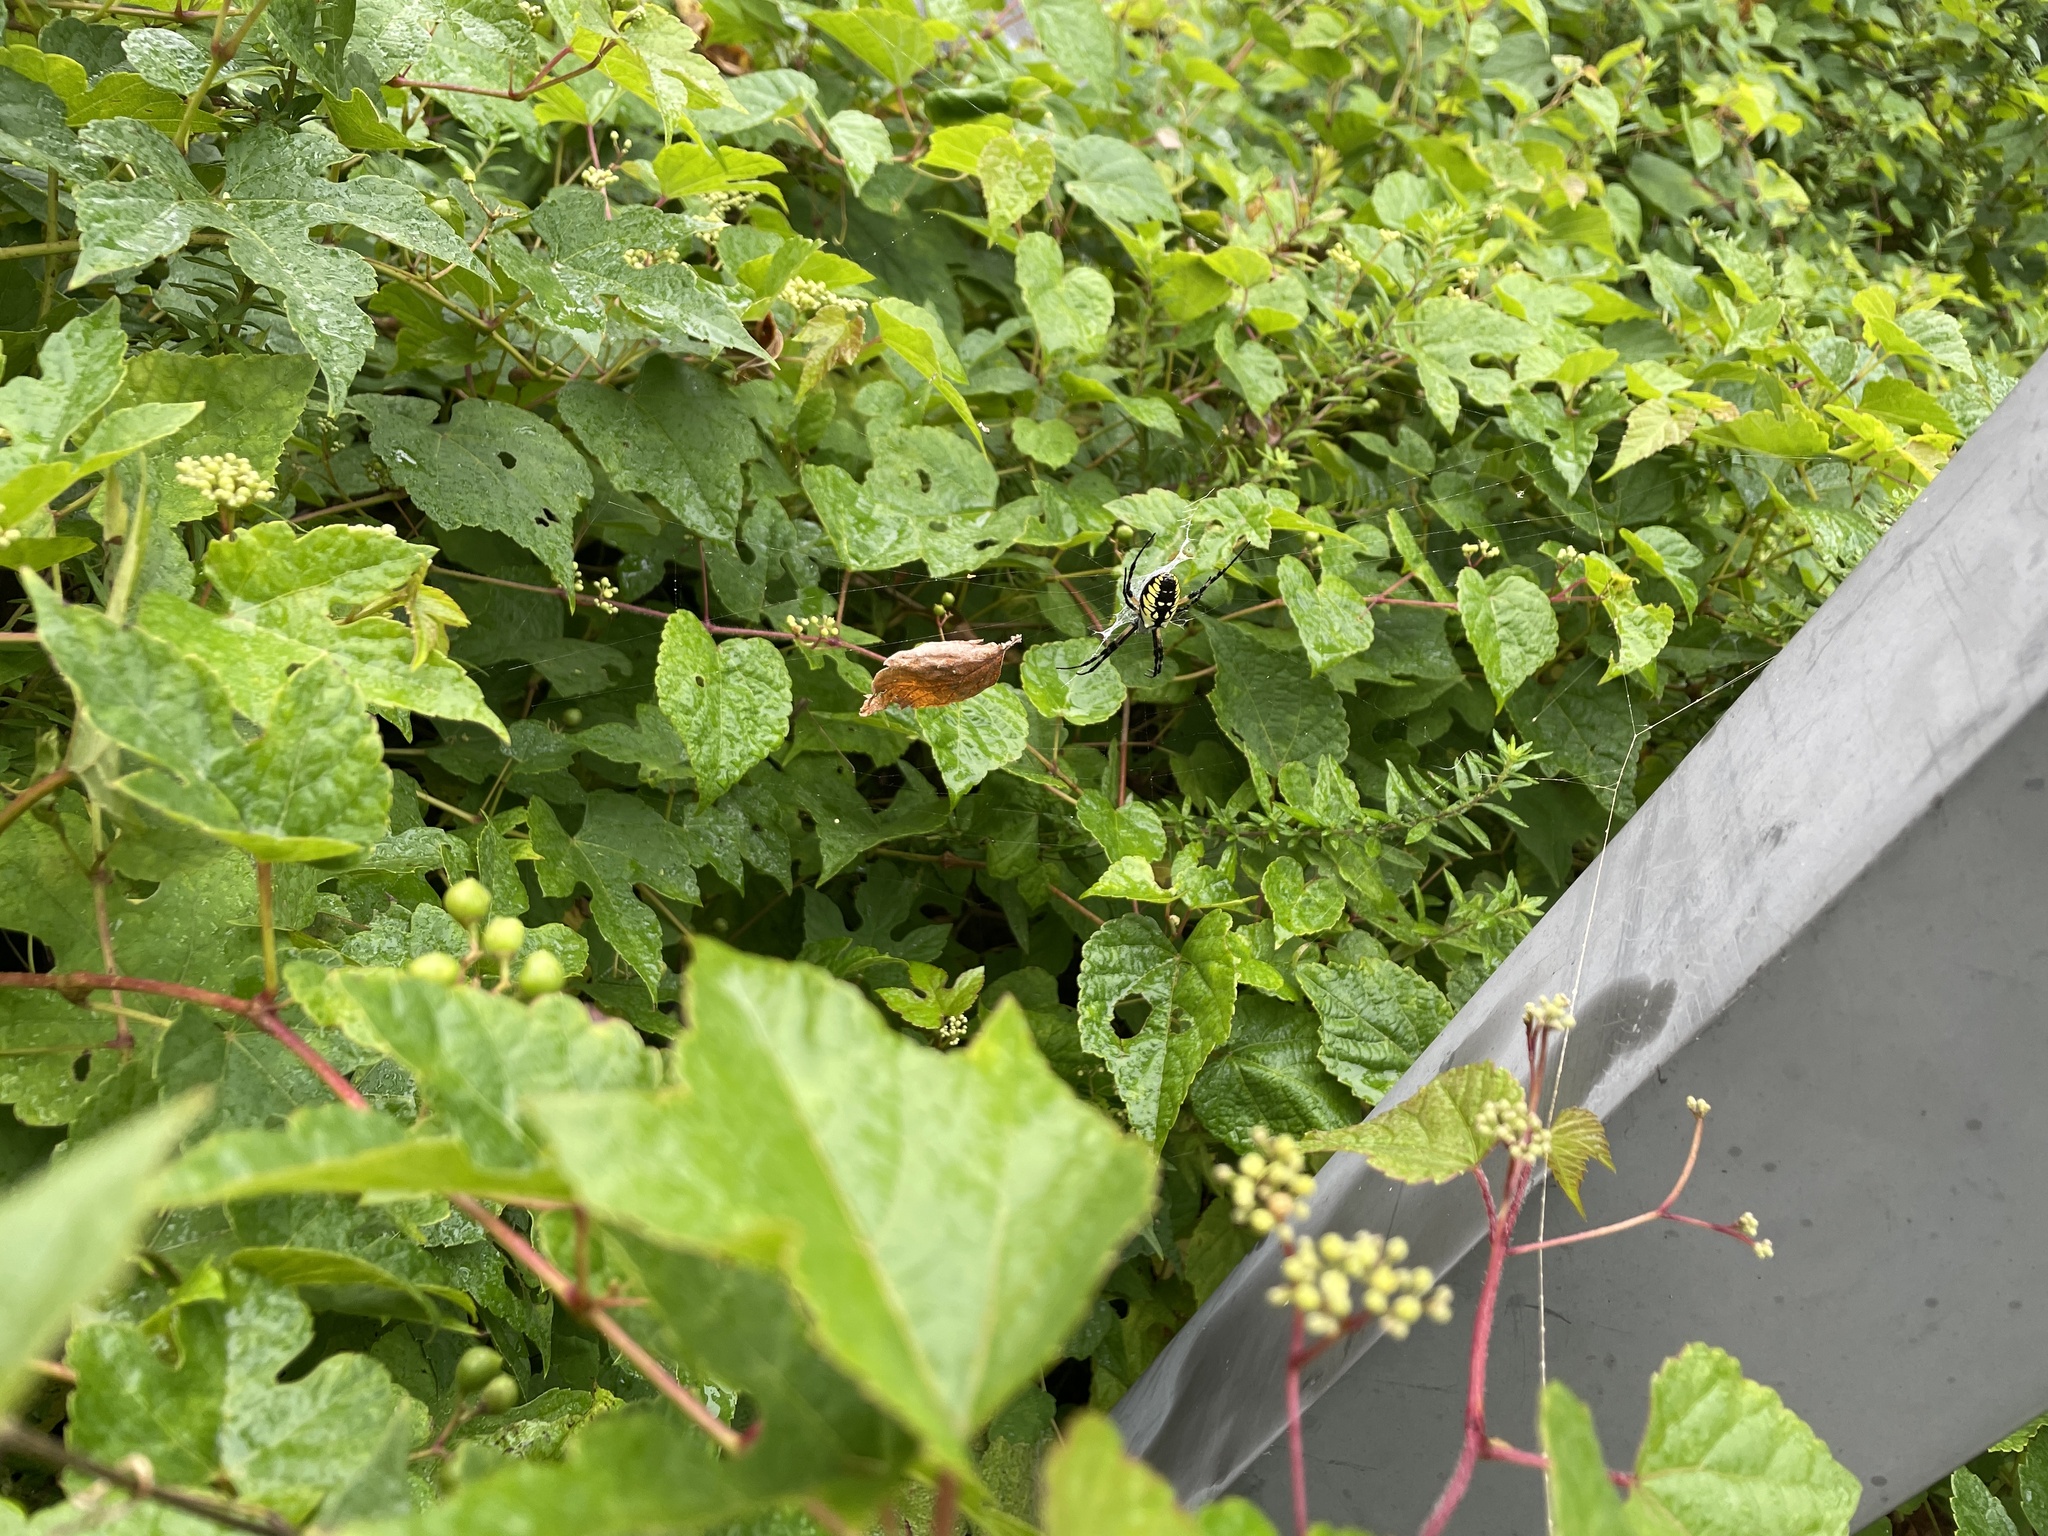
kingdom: Animalia
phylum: Arthropoda
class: Arachnida
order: Araneae
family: Araneidae
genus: Argiope
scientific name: Argiope aurantia
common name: Orb weavers
